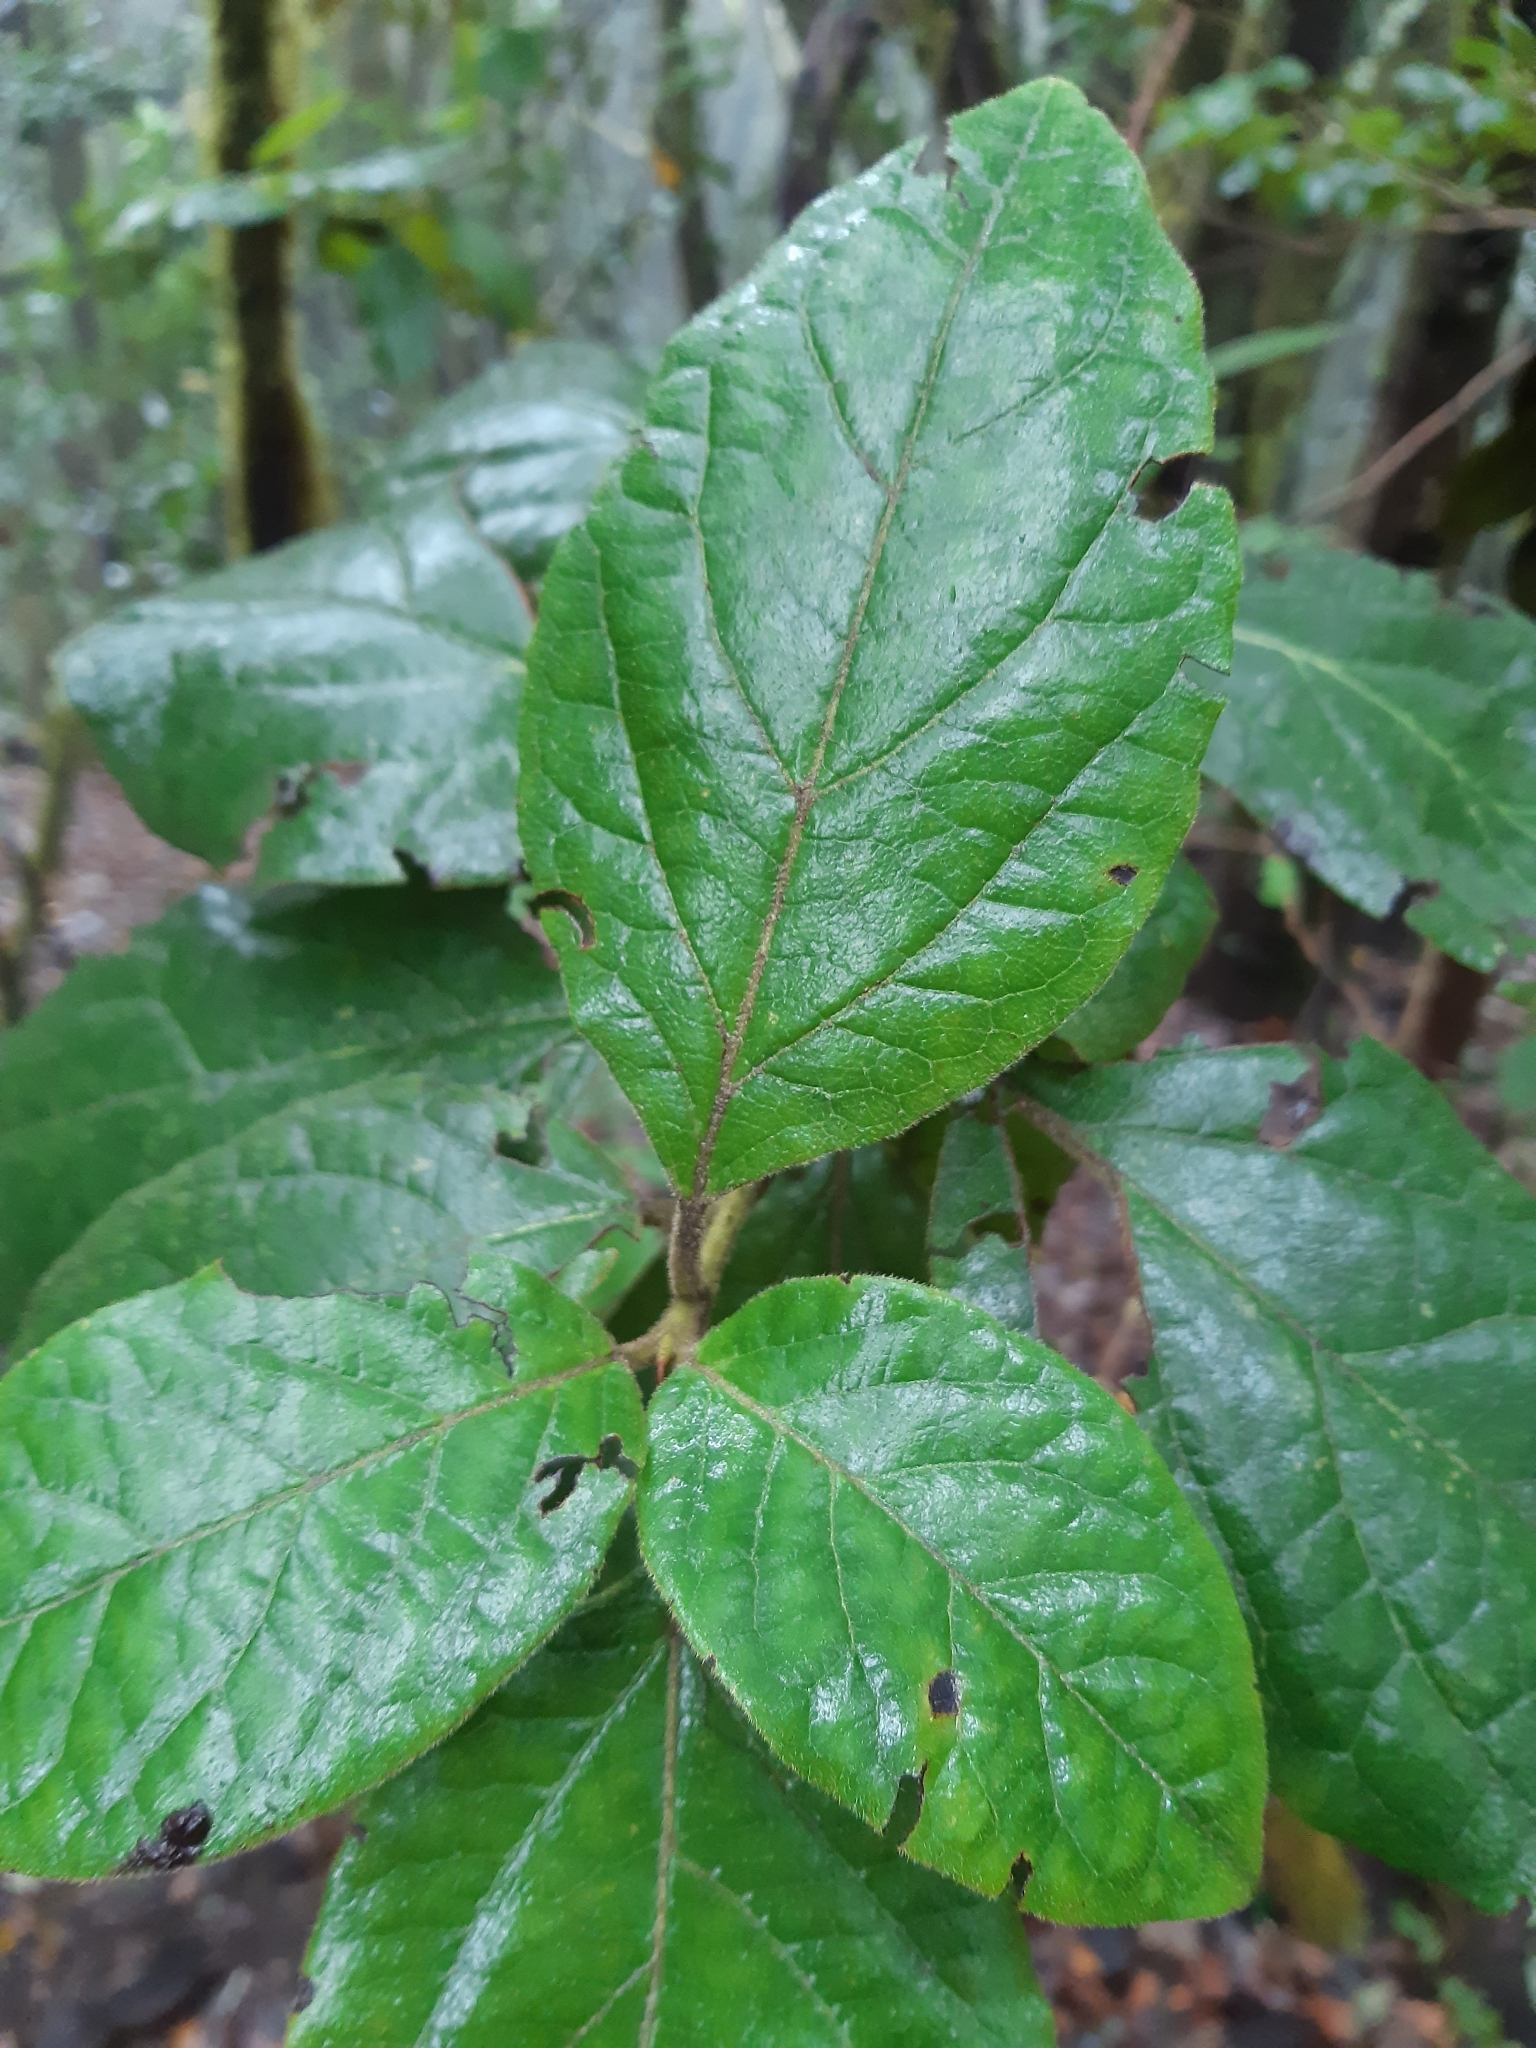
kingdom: Plantae
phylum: Tracheophyta
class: Magnoliopsida
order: Dipsacales
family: Viburnaceae
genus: Viburnum
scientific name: Viburnum rugosum
